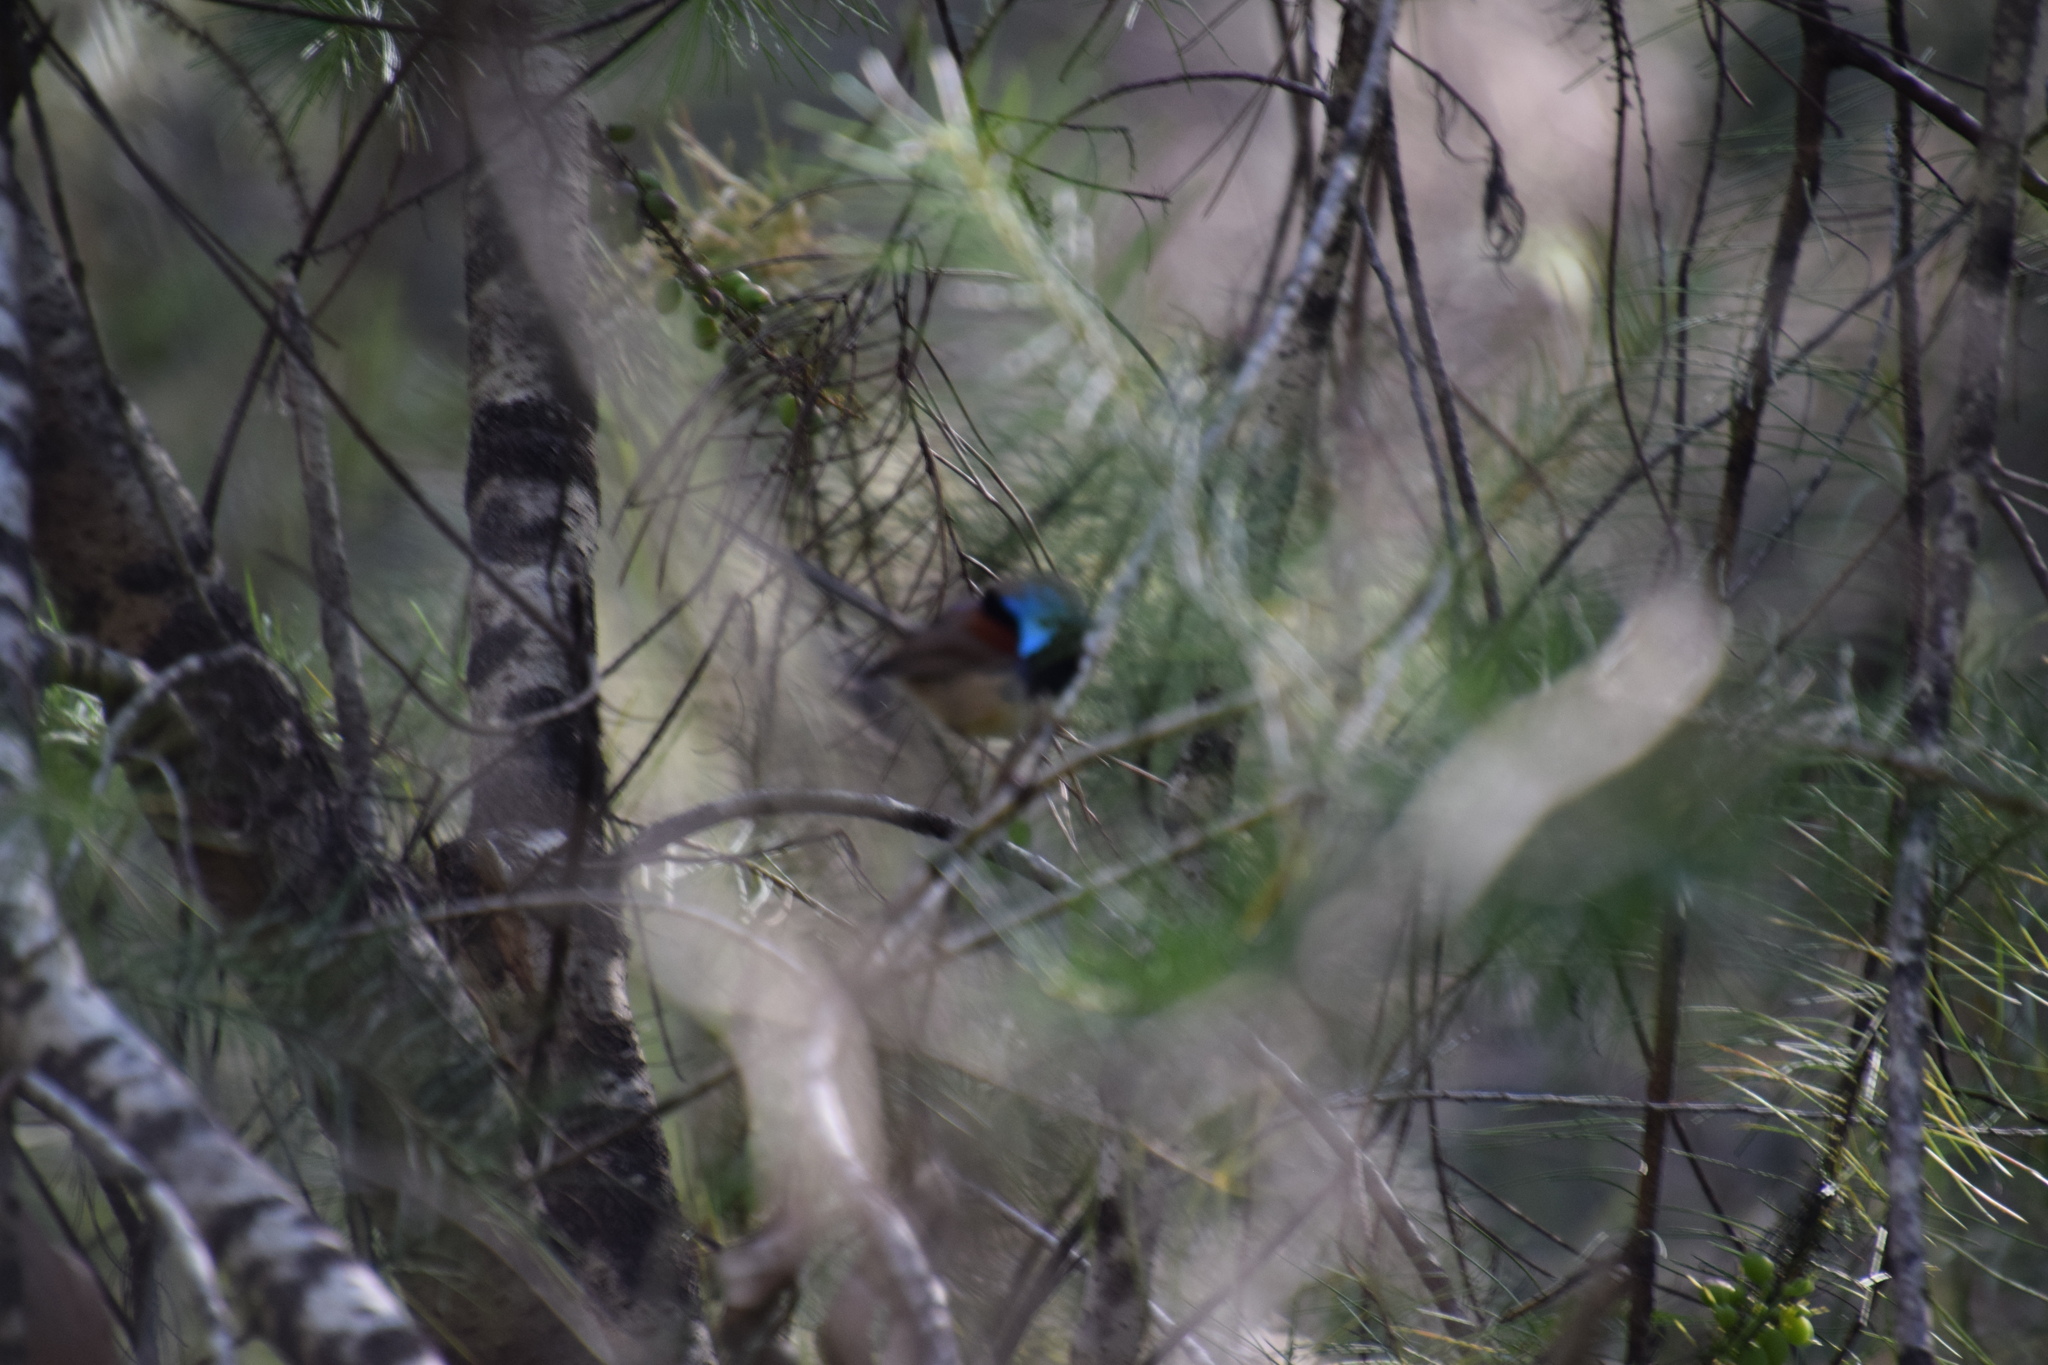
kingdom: Animalia
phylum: Chordata
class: Aves
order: Passeriformes
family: Maluridae
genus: Malurus
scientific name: Malurus lamberti
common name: Variegated fairywren
